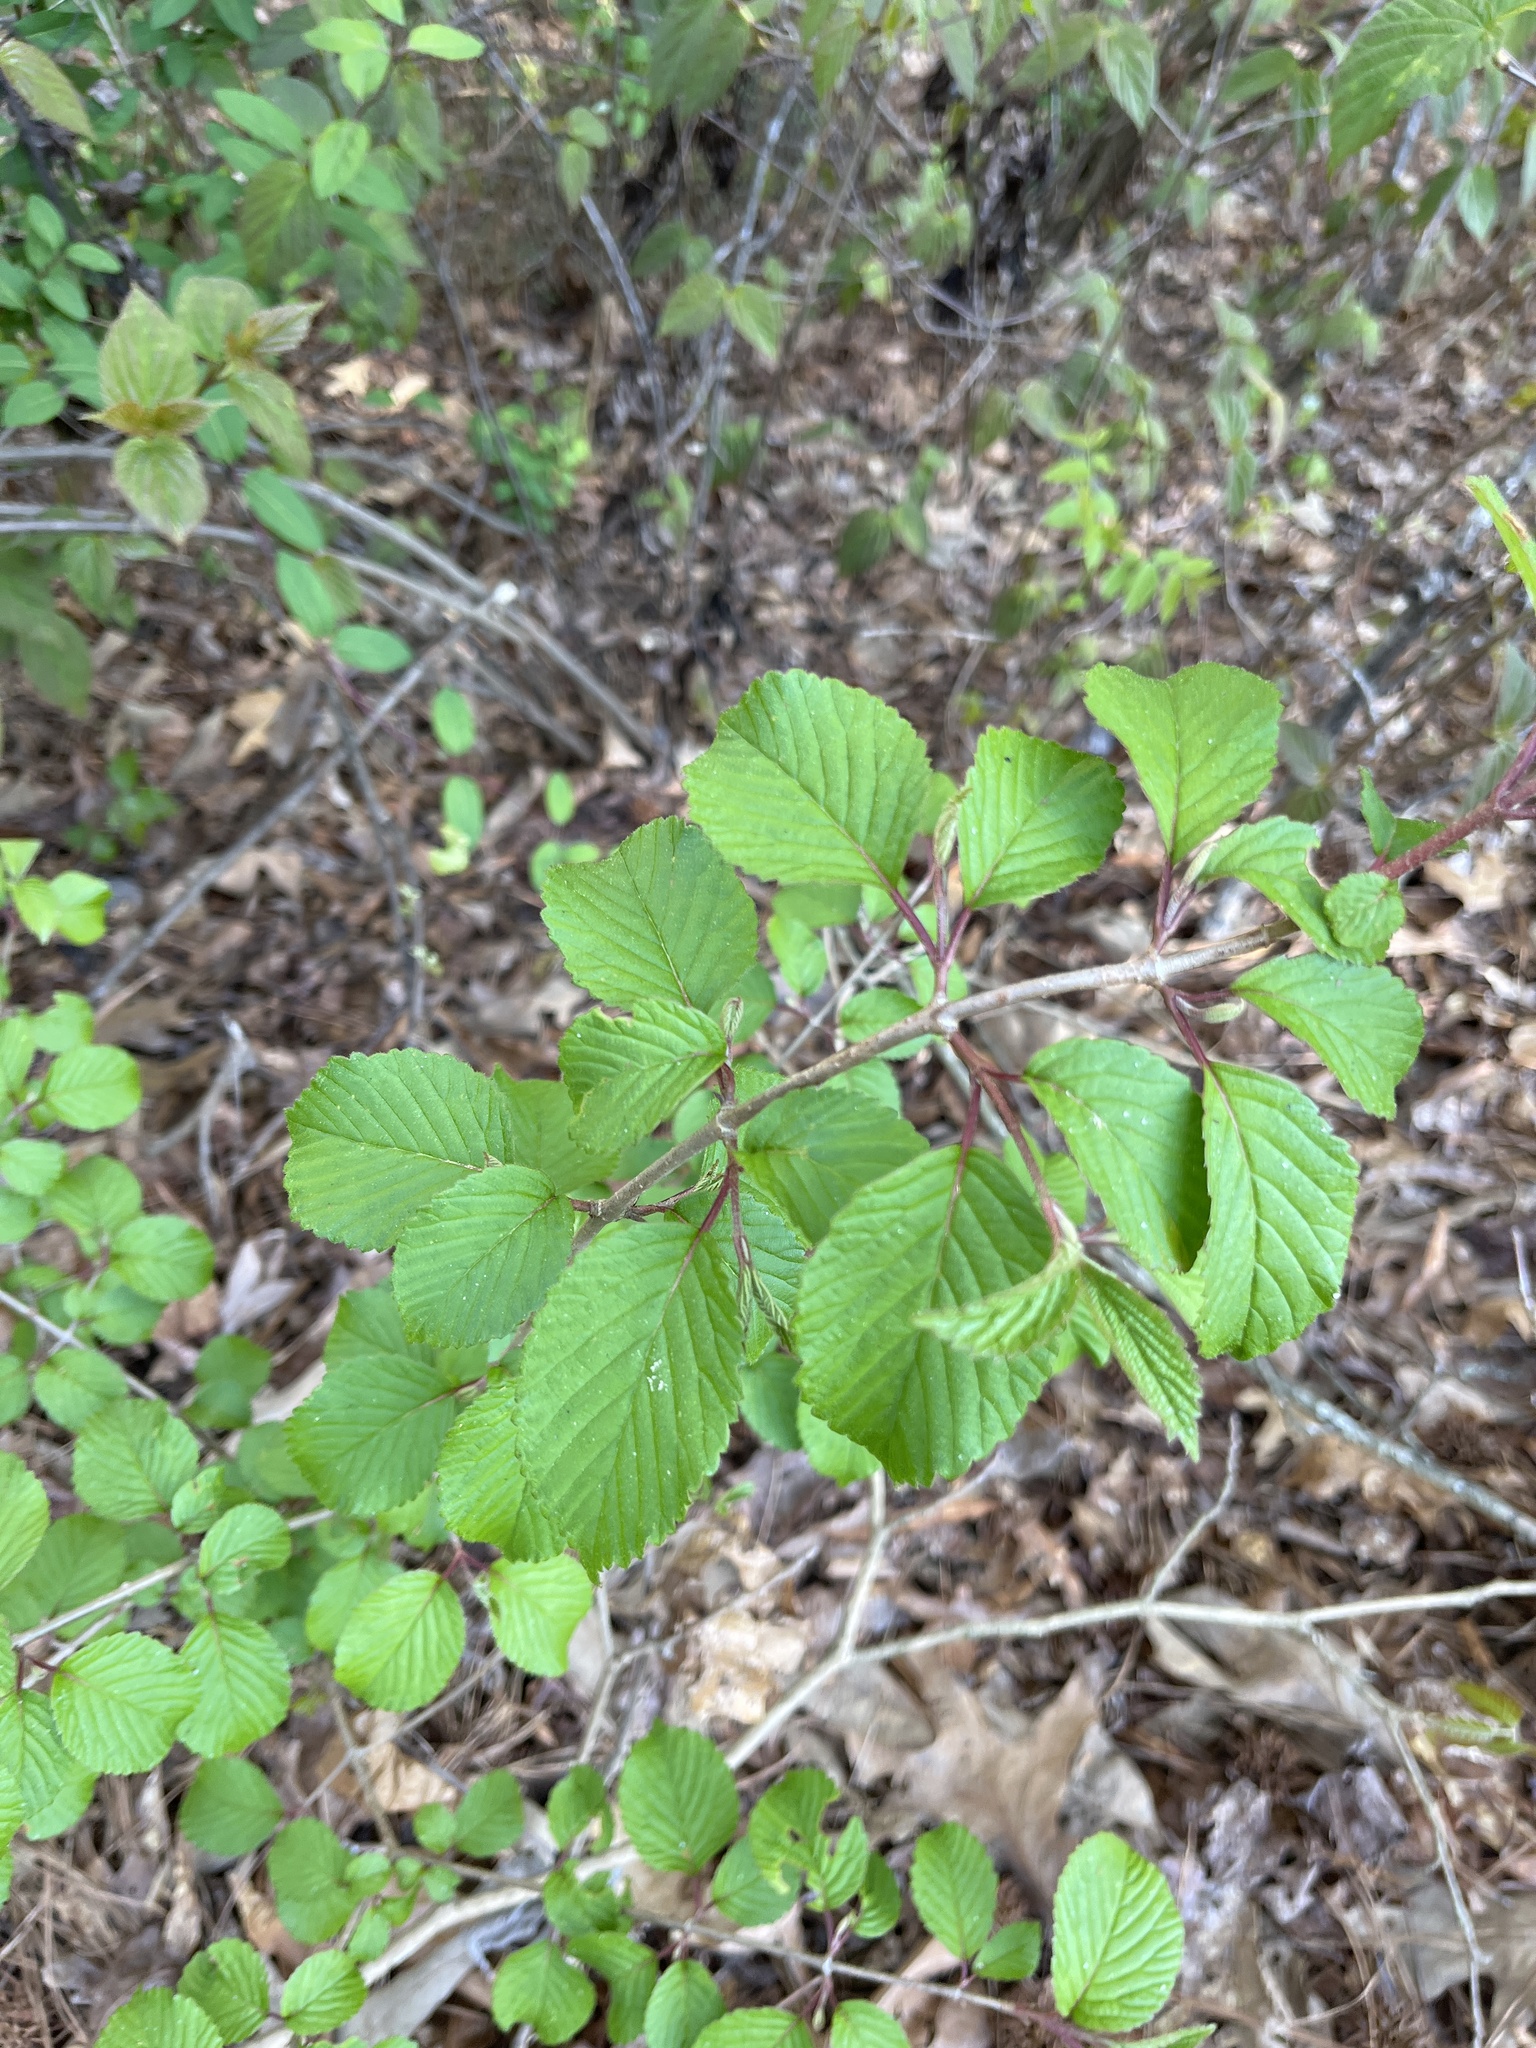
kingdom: Plantae
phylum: Tracheophyta
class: Magnoliopsida
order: Dipsacales
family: Viburnaceae
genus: Viburnum
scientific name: Viburnum plicatum
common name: Japanese snowball
